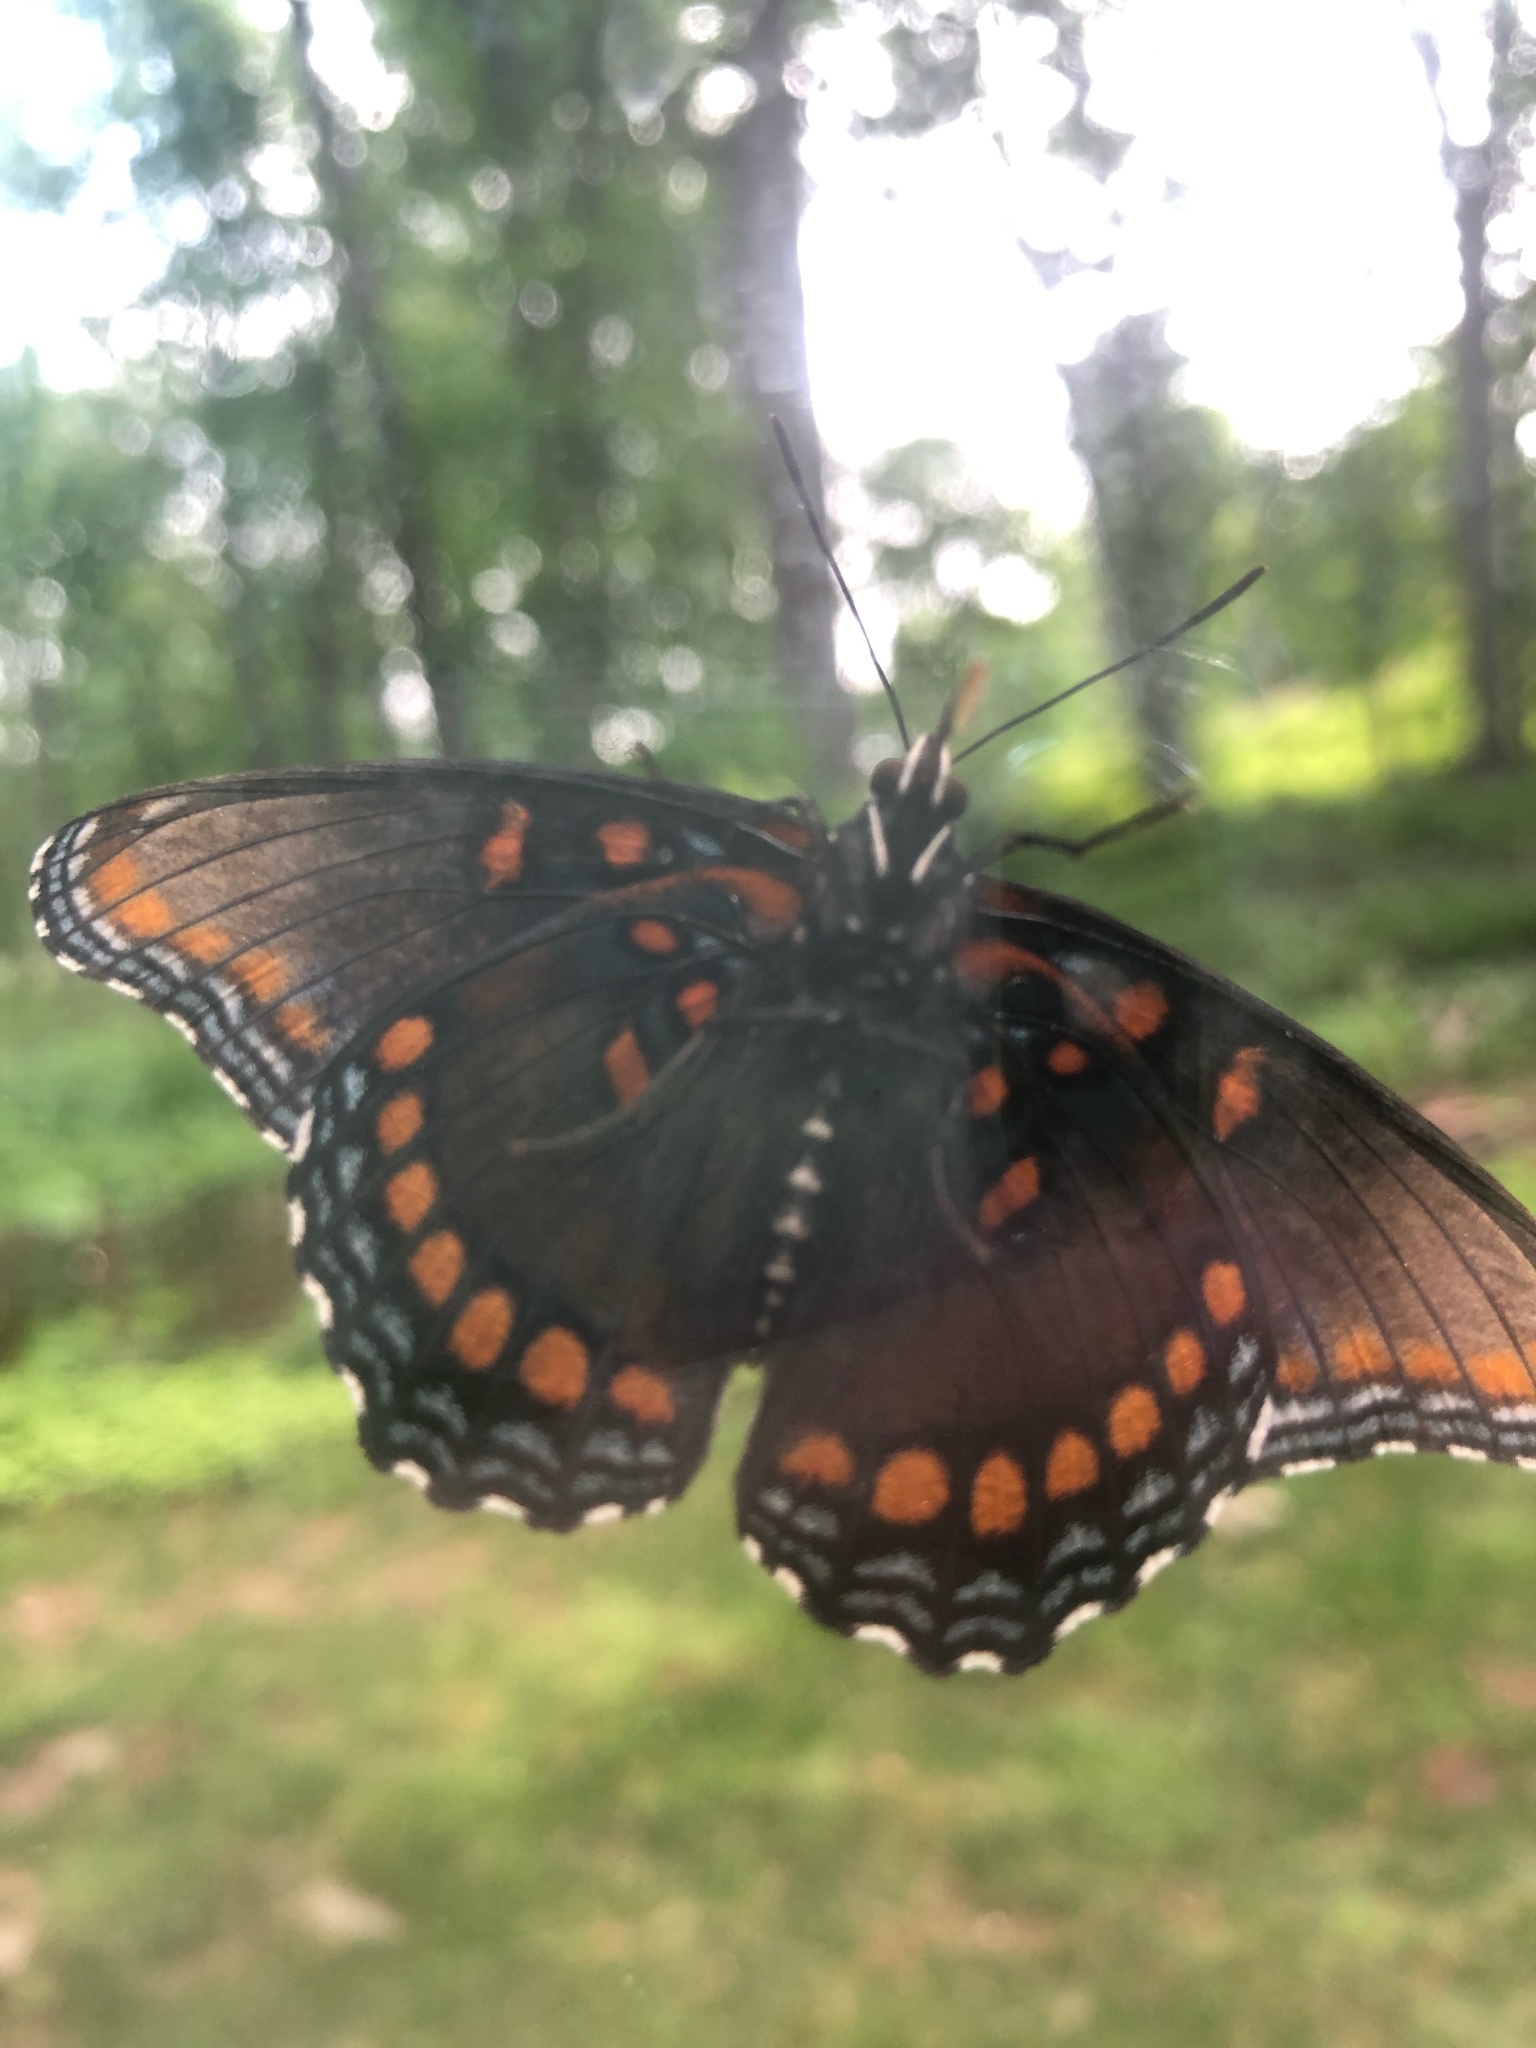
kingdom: Animalia
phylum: Arthropoda
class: Insecta
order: Lepidoptera
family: Nymphalidae
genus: Limenitis
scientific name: Limenitis astyanax
